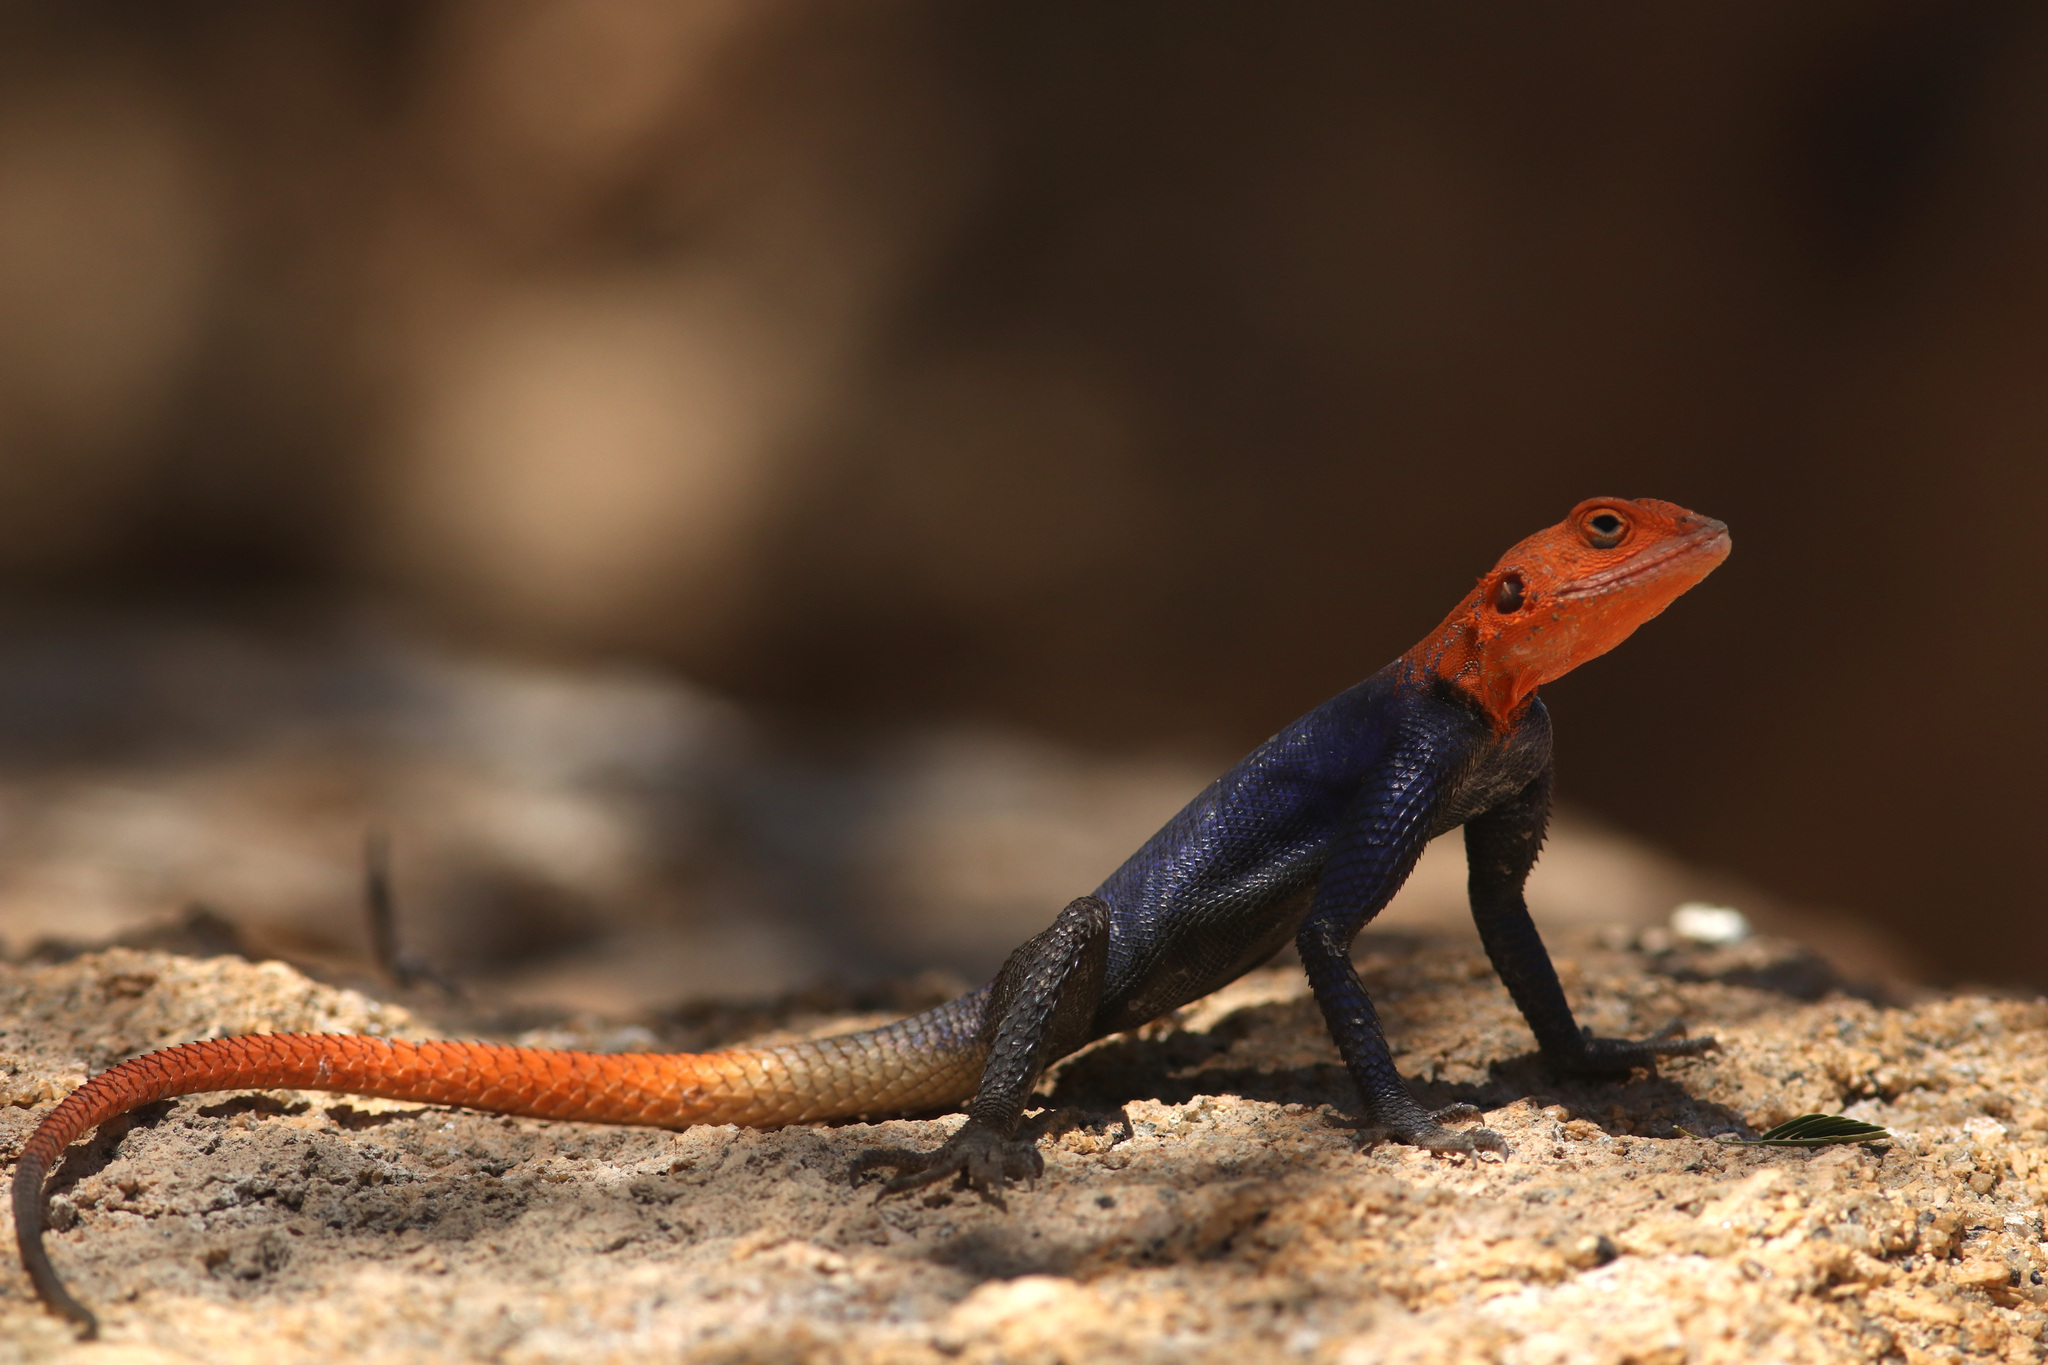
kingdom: Animalia
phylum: Chordata
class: Squamata
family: Agamidae
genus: Agama
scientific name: Agama planiceps
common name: Namib rock agama
